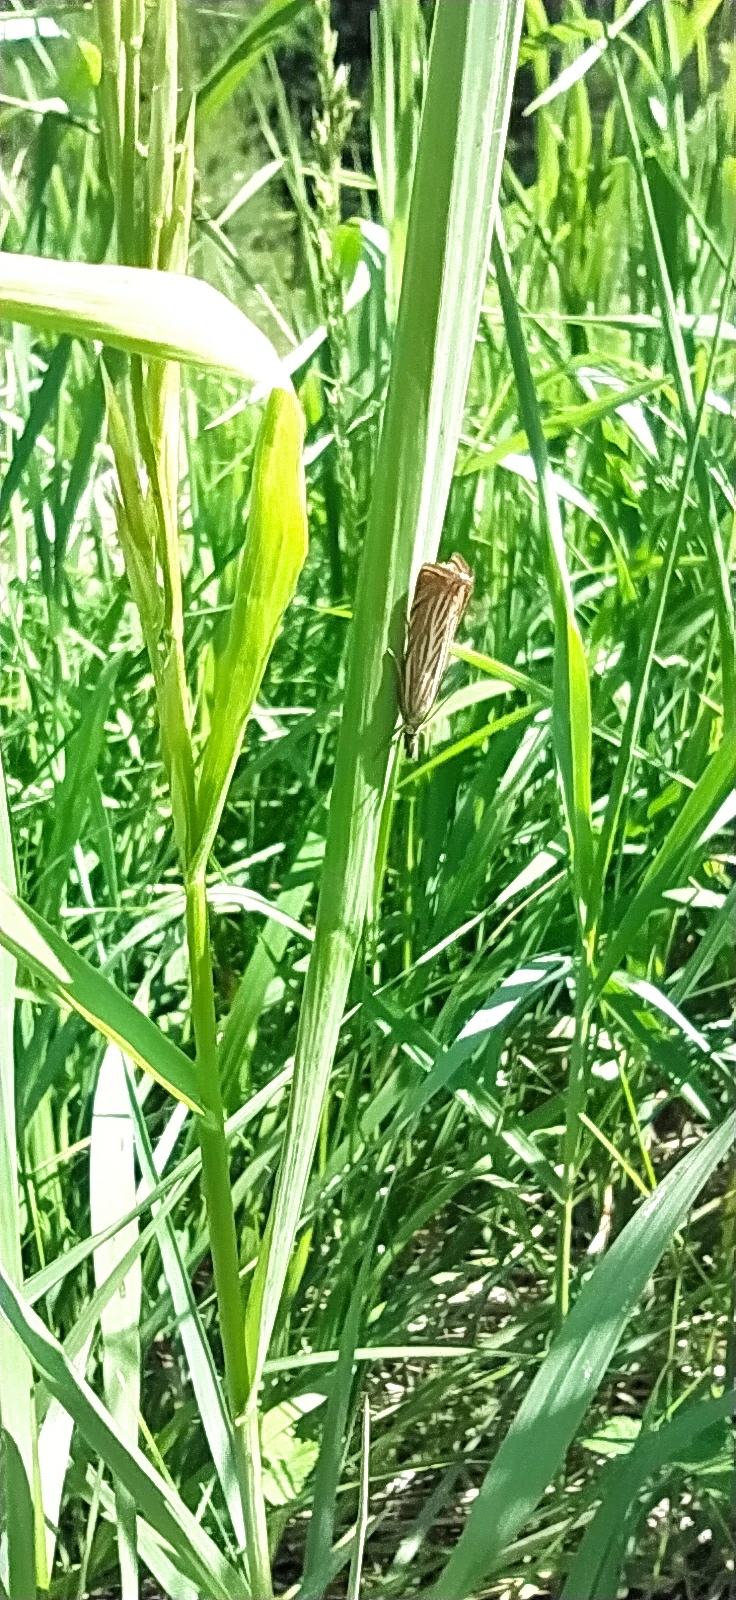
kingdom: Animalia
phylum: Arthropoda
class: Insecta
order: Lepidoptera
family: Crambidae
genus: Chrysoteuchia
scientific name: Chrysoteuchia culmella
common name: Garden grass-veneer
